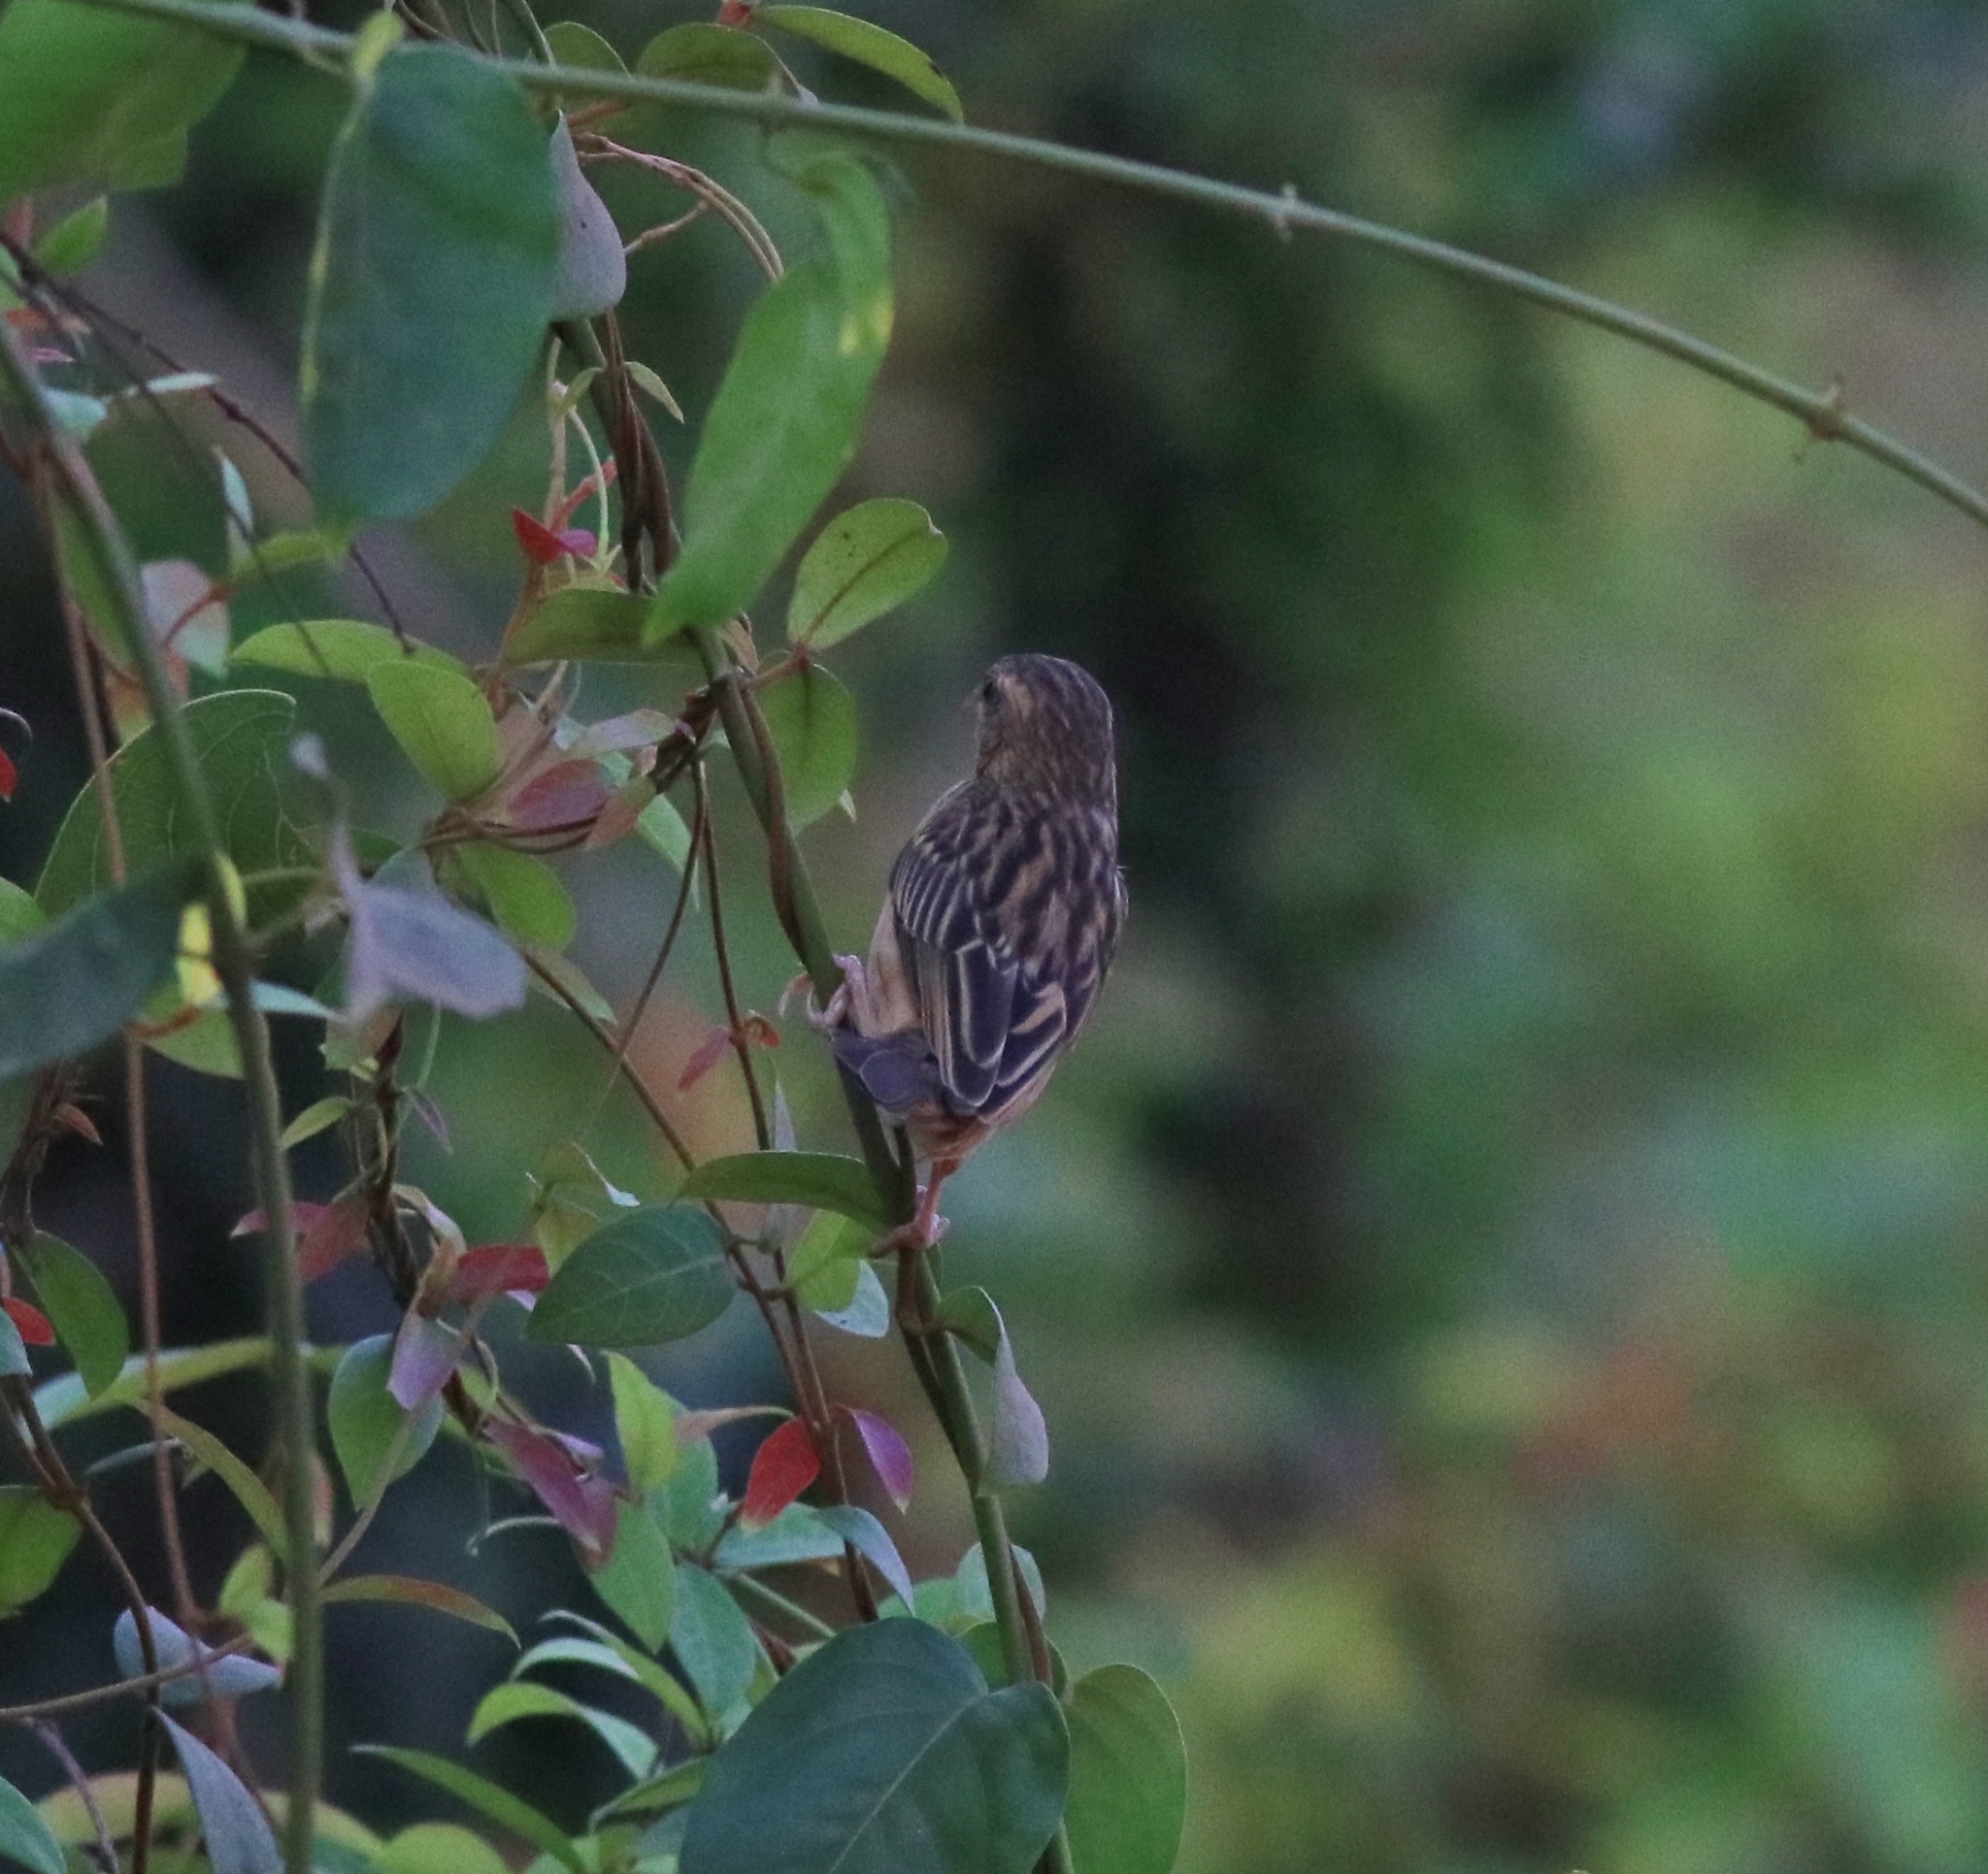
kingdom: Animalia
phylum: Chordata
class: Aves
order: Passeriformes
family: Ploceidae
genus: Ploceus
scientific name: Ploceus philippinus
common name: Baya weaver
